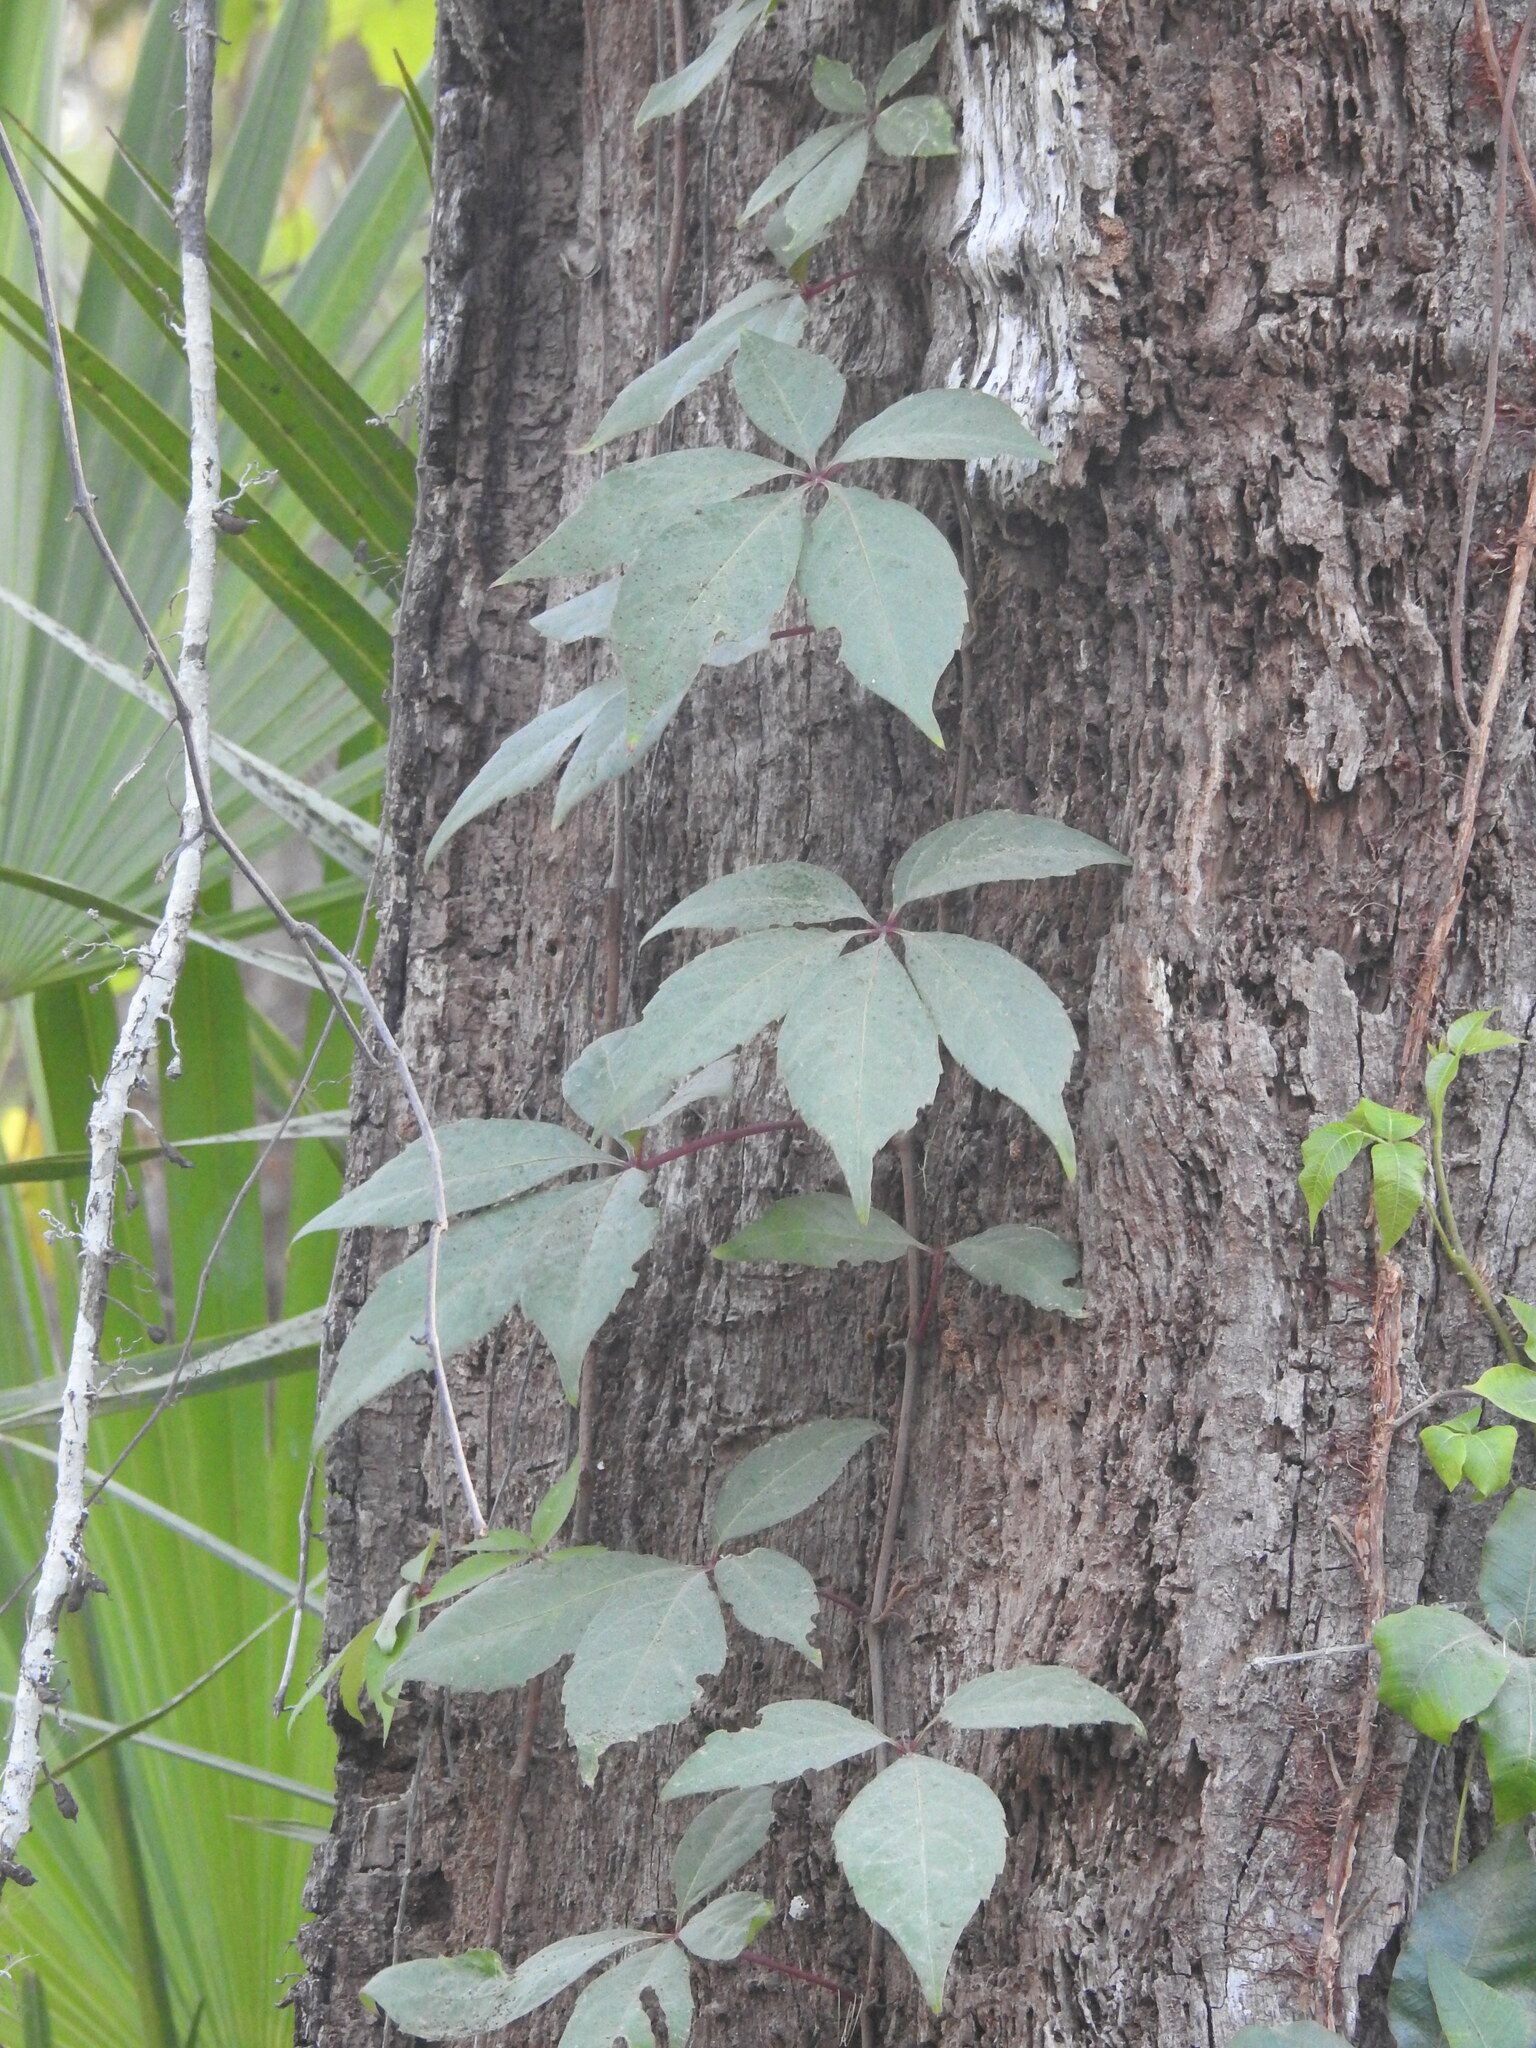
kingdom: Plantae
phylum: Tracheophyta
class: Magnoliopsida
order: Vitales
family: Vitaceae
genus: Parthenocissus
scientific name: Parthenocissus quinquefolia
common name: Virginia-creeper
